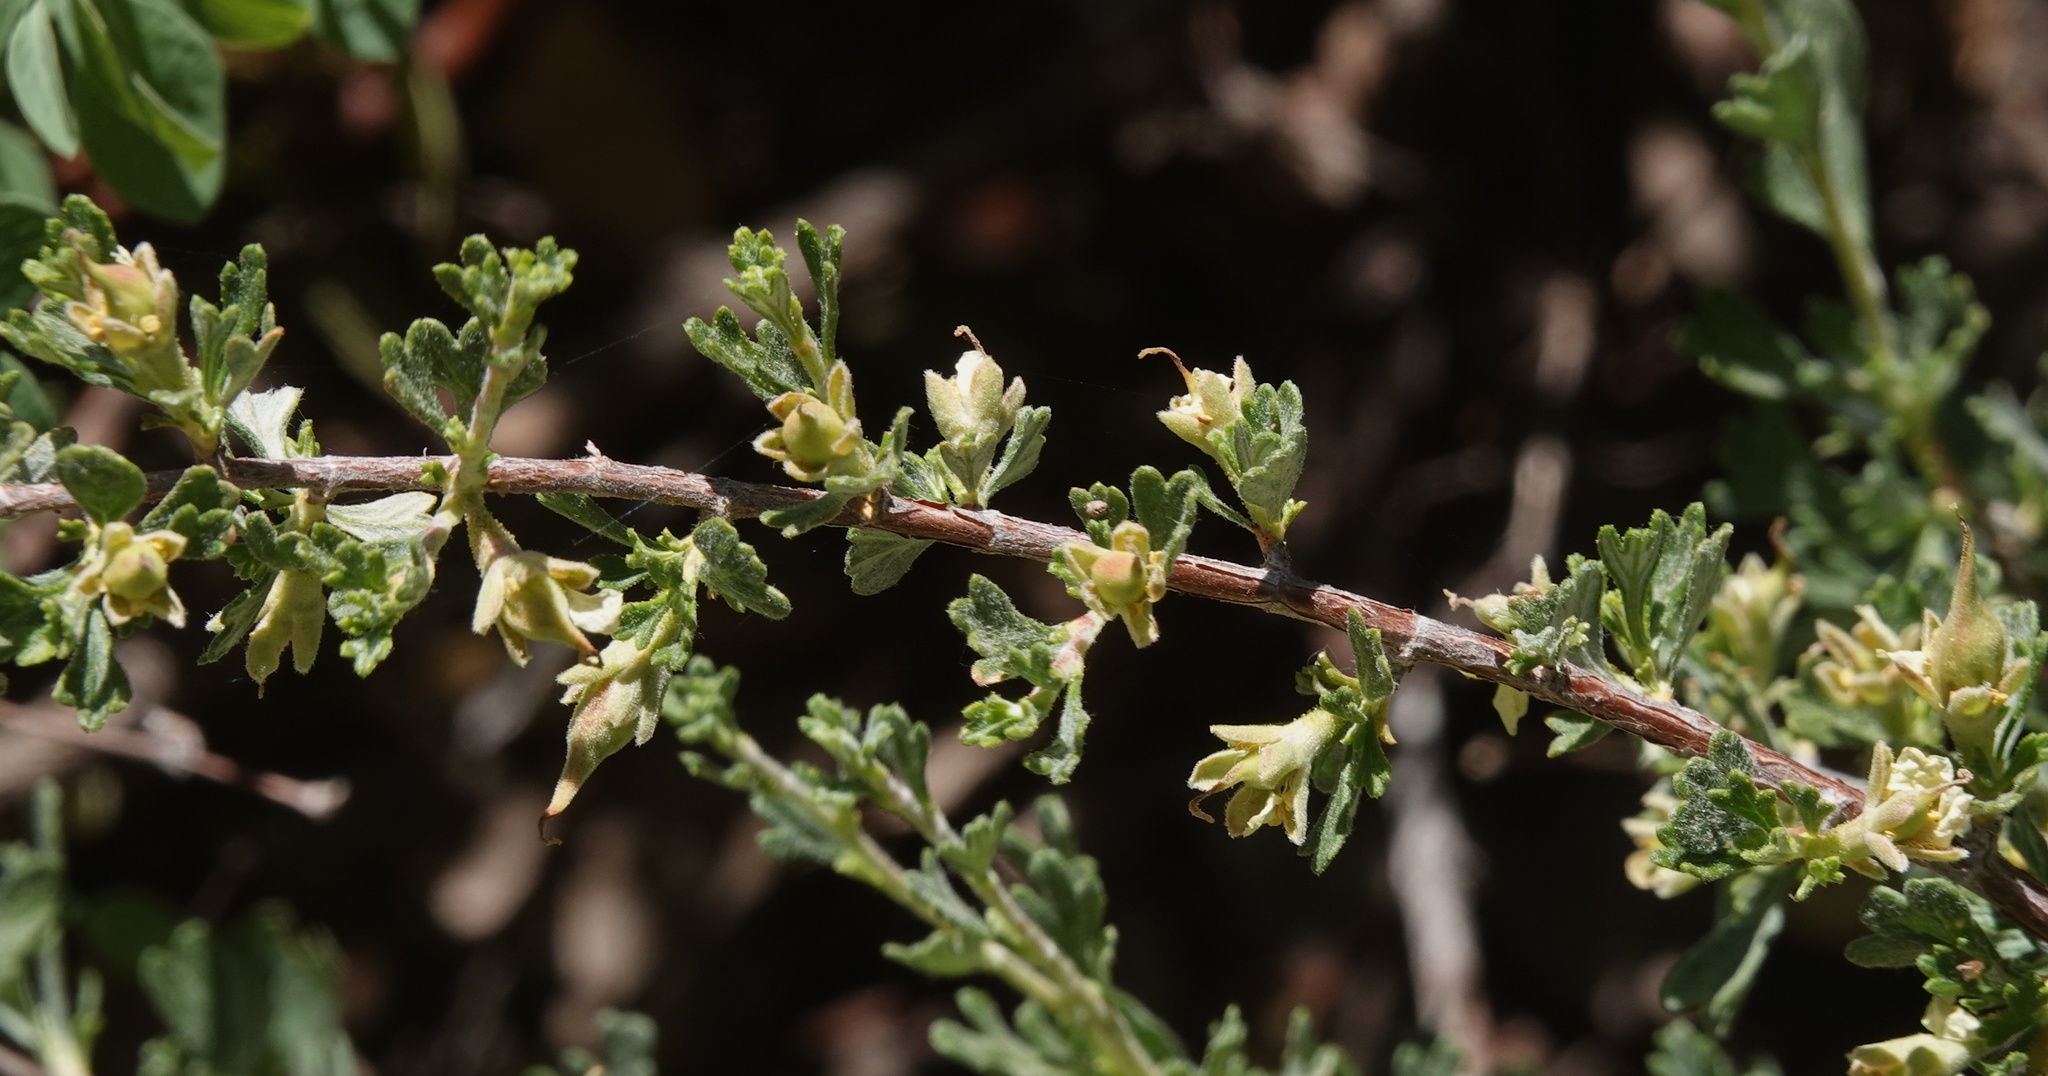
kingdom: Plantae
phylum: Tracheophyta
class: Magnoliopsida
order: Rosales
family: Rosaceae
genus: Purshia
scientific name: Purshia tridentata
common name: Antelope bitterbrush
